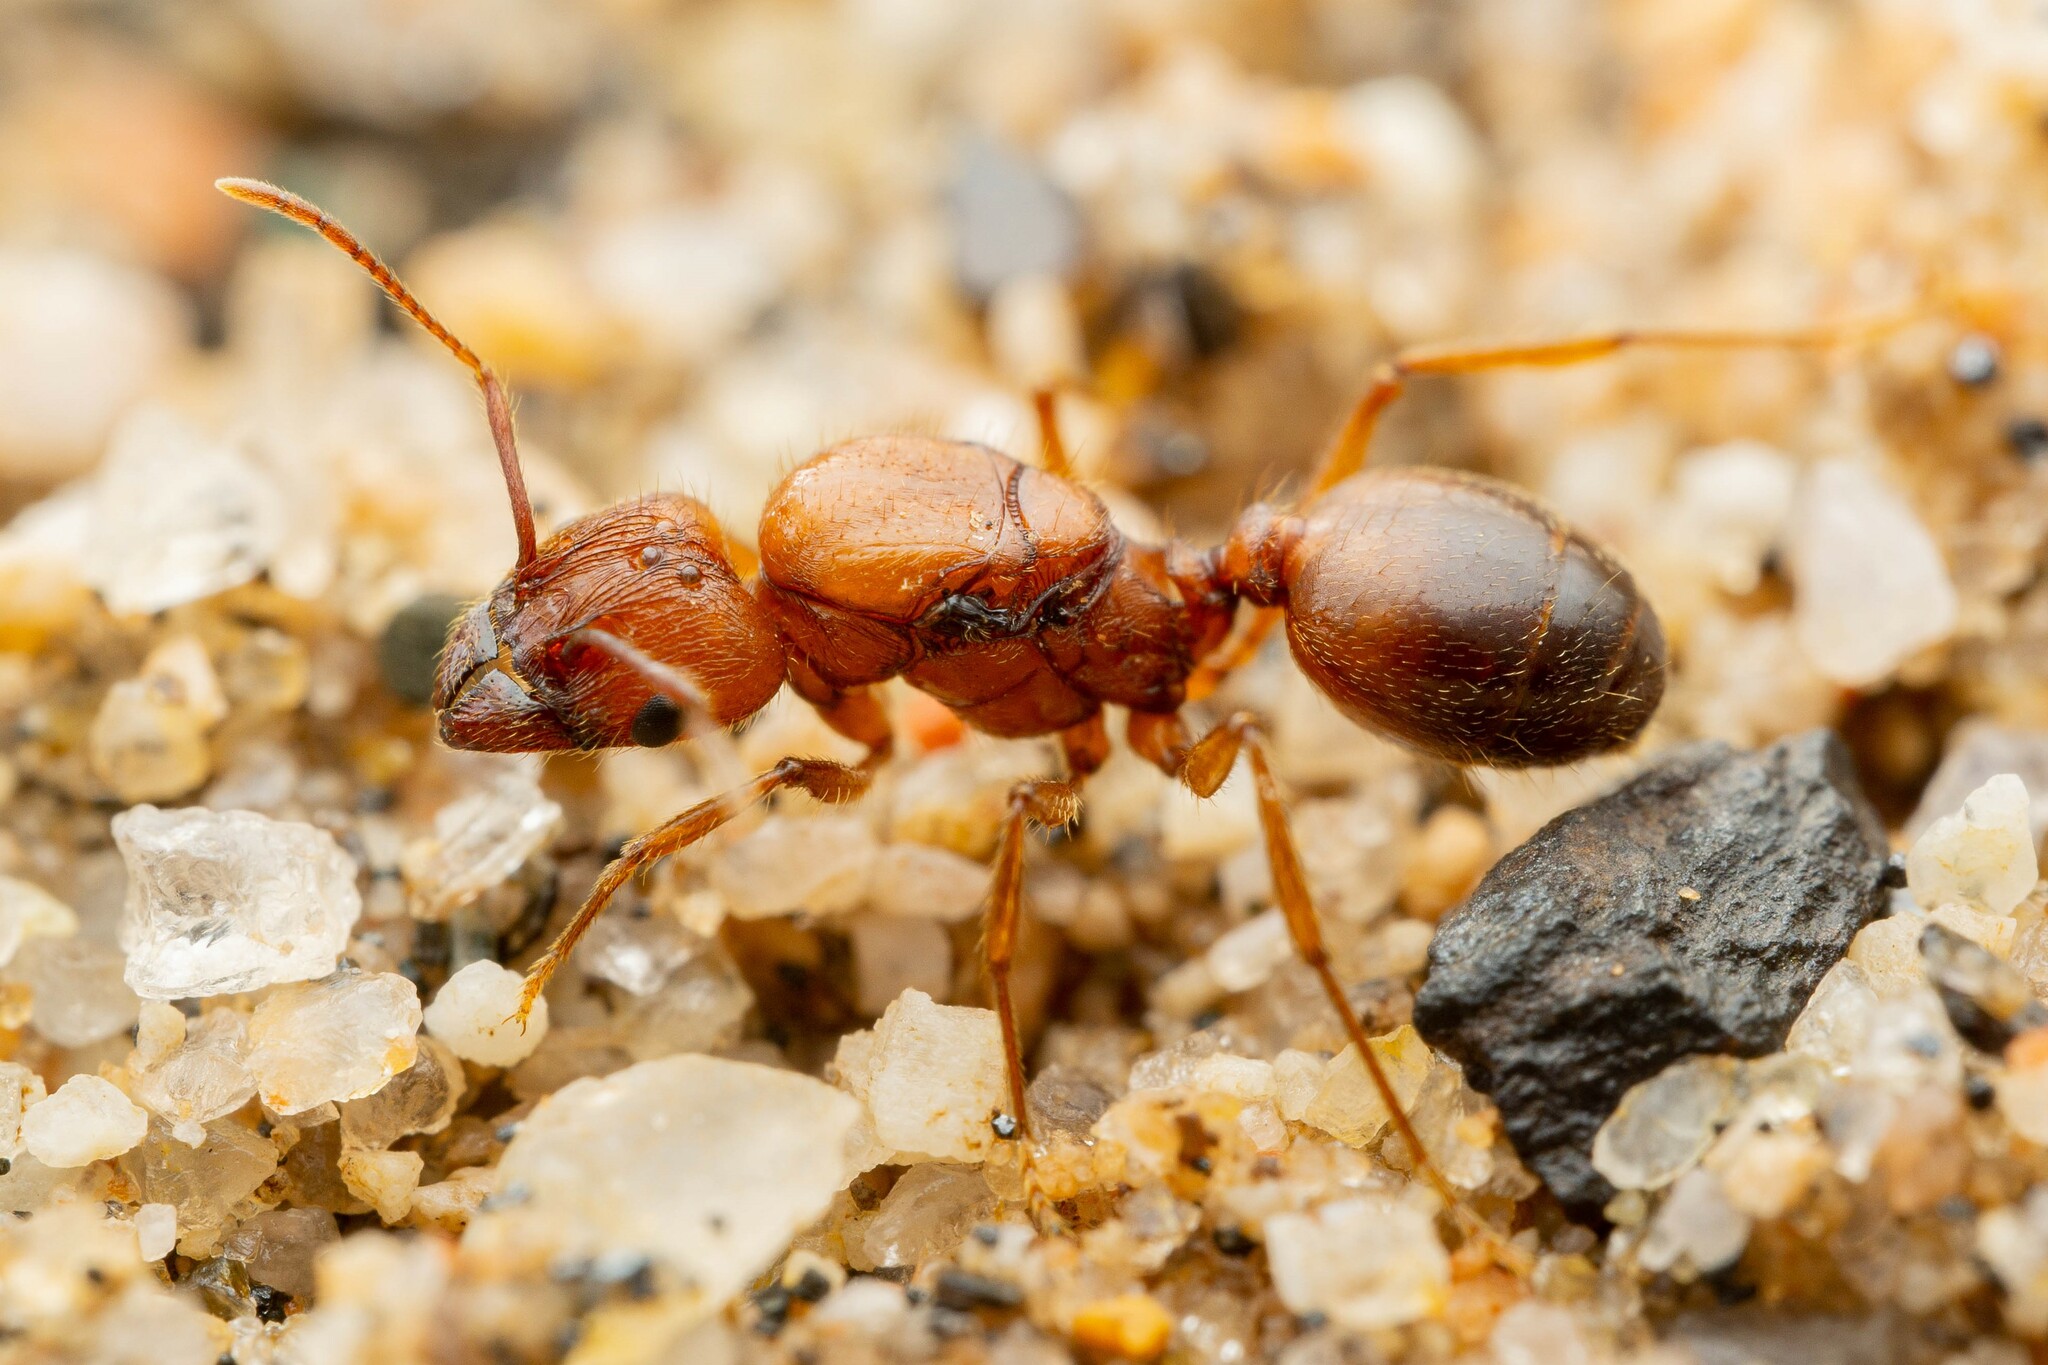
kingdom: Animalia
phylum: Arthropoda
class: Insecta
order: Hymenoptera
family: Formicidae
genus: Pheidole
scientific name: Pheidole hyatti
